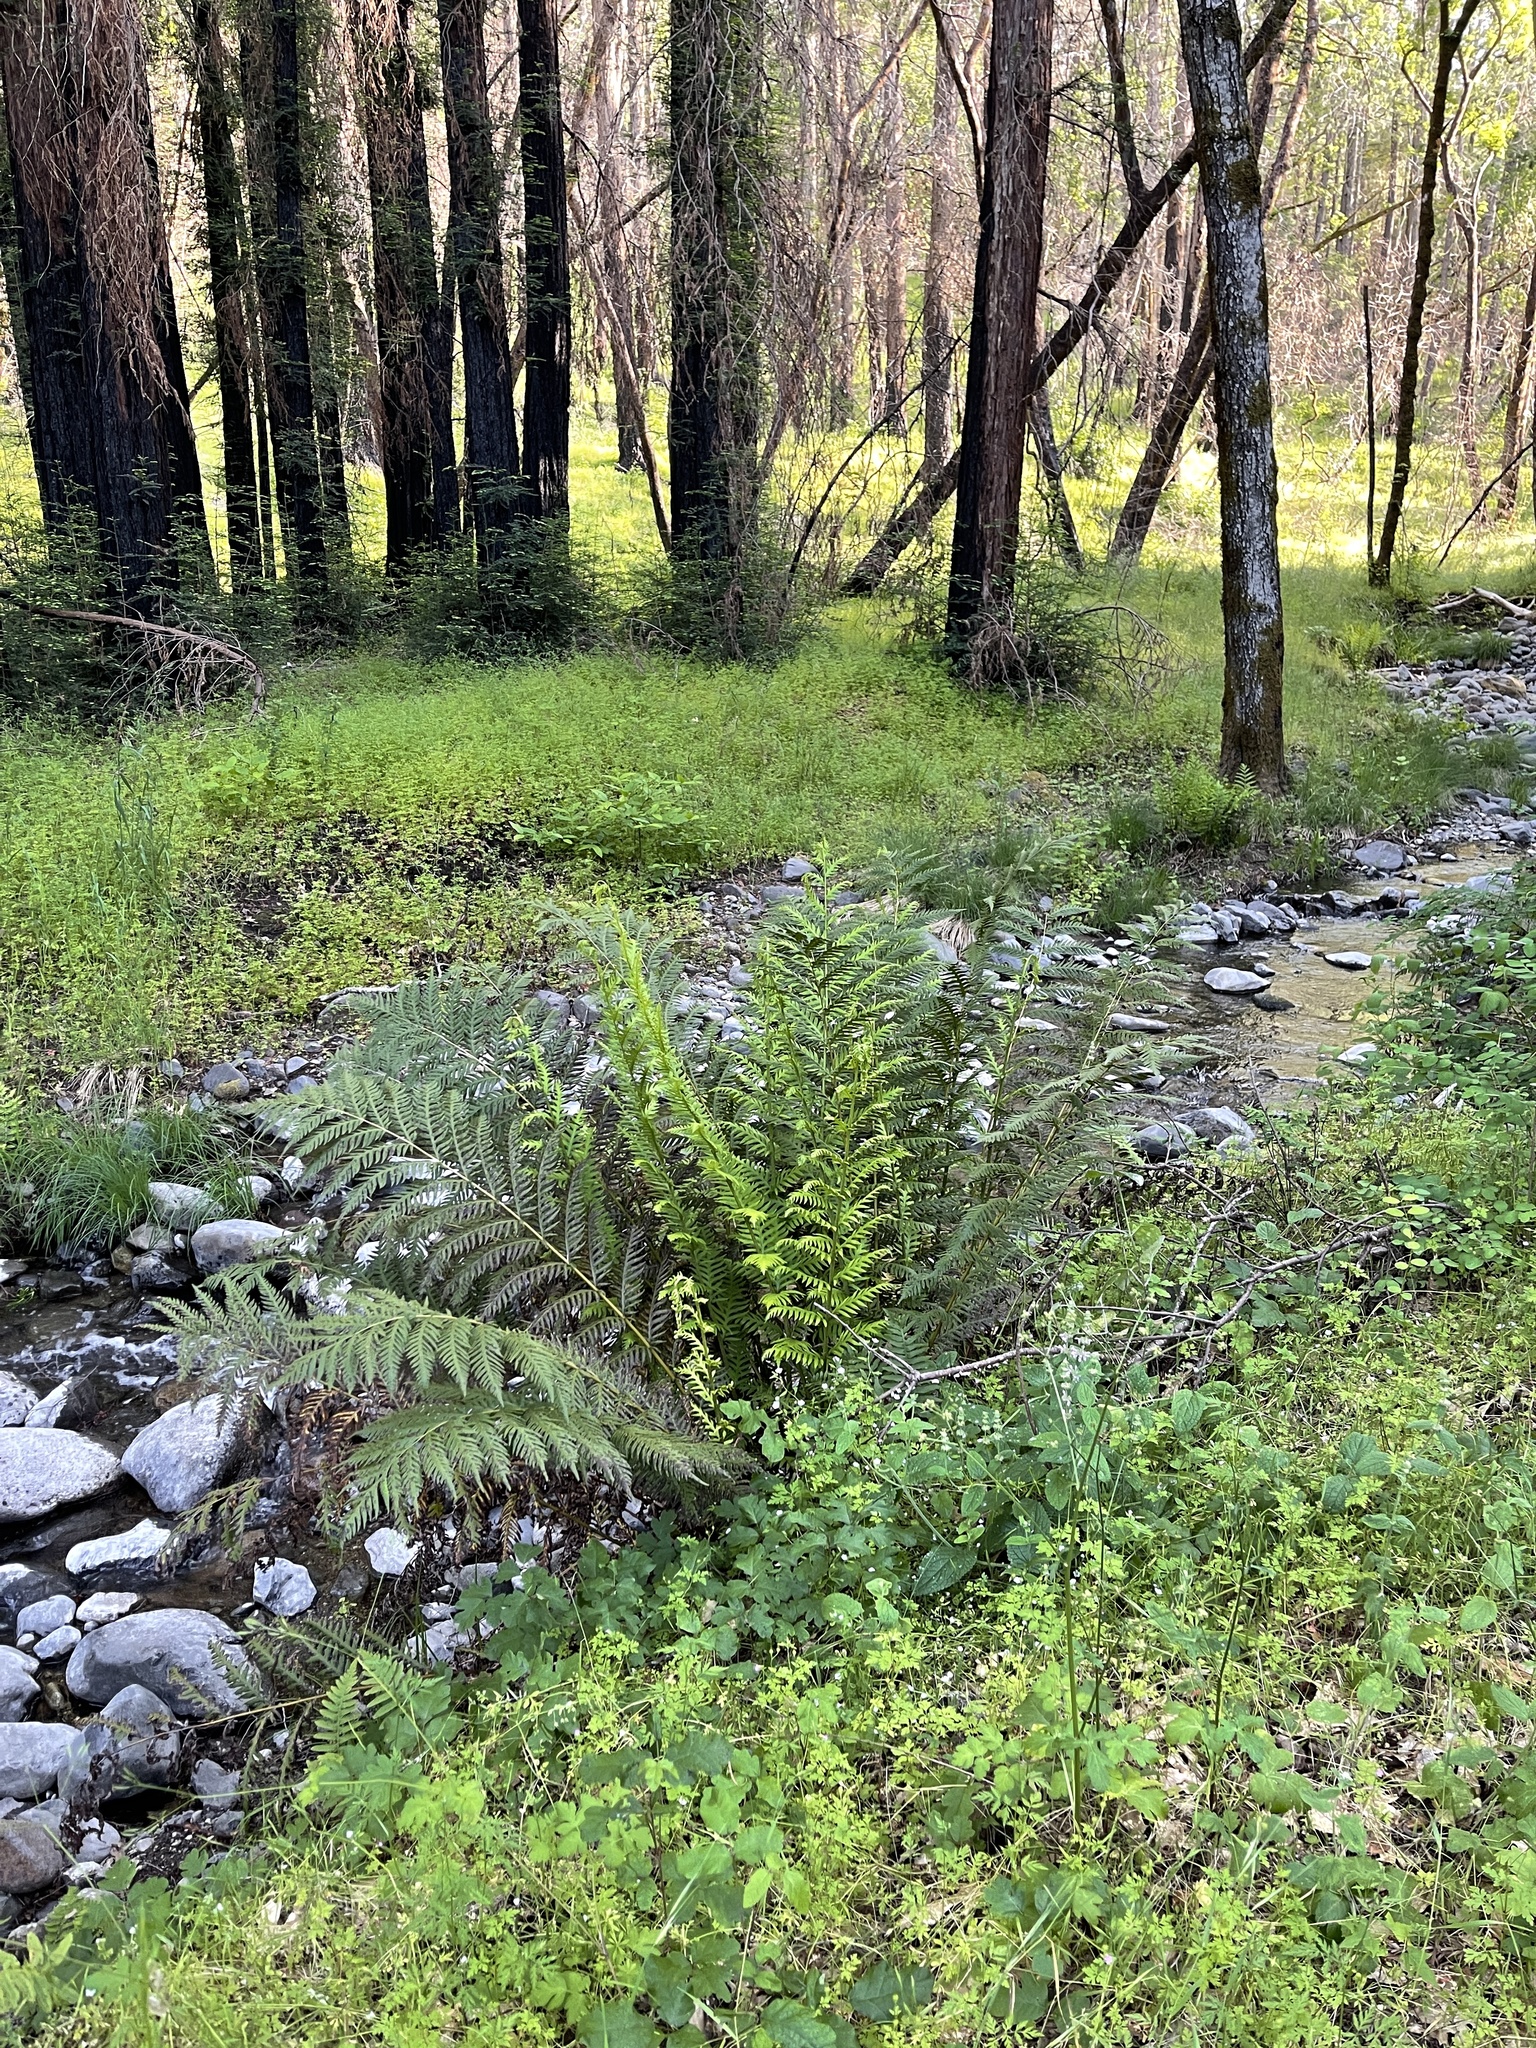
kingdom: Plantae
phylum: Tracheophyta
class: Polypodiopsida
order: Polypodiales
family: Blechnaceae
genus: Woodwardia
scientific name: Woodwardia fimbriata
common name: Giant chain fern
